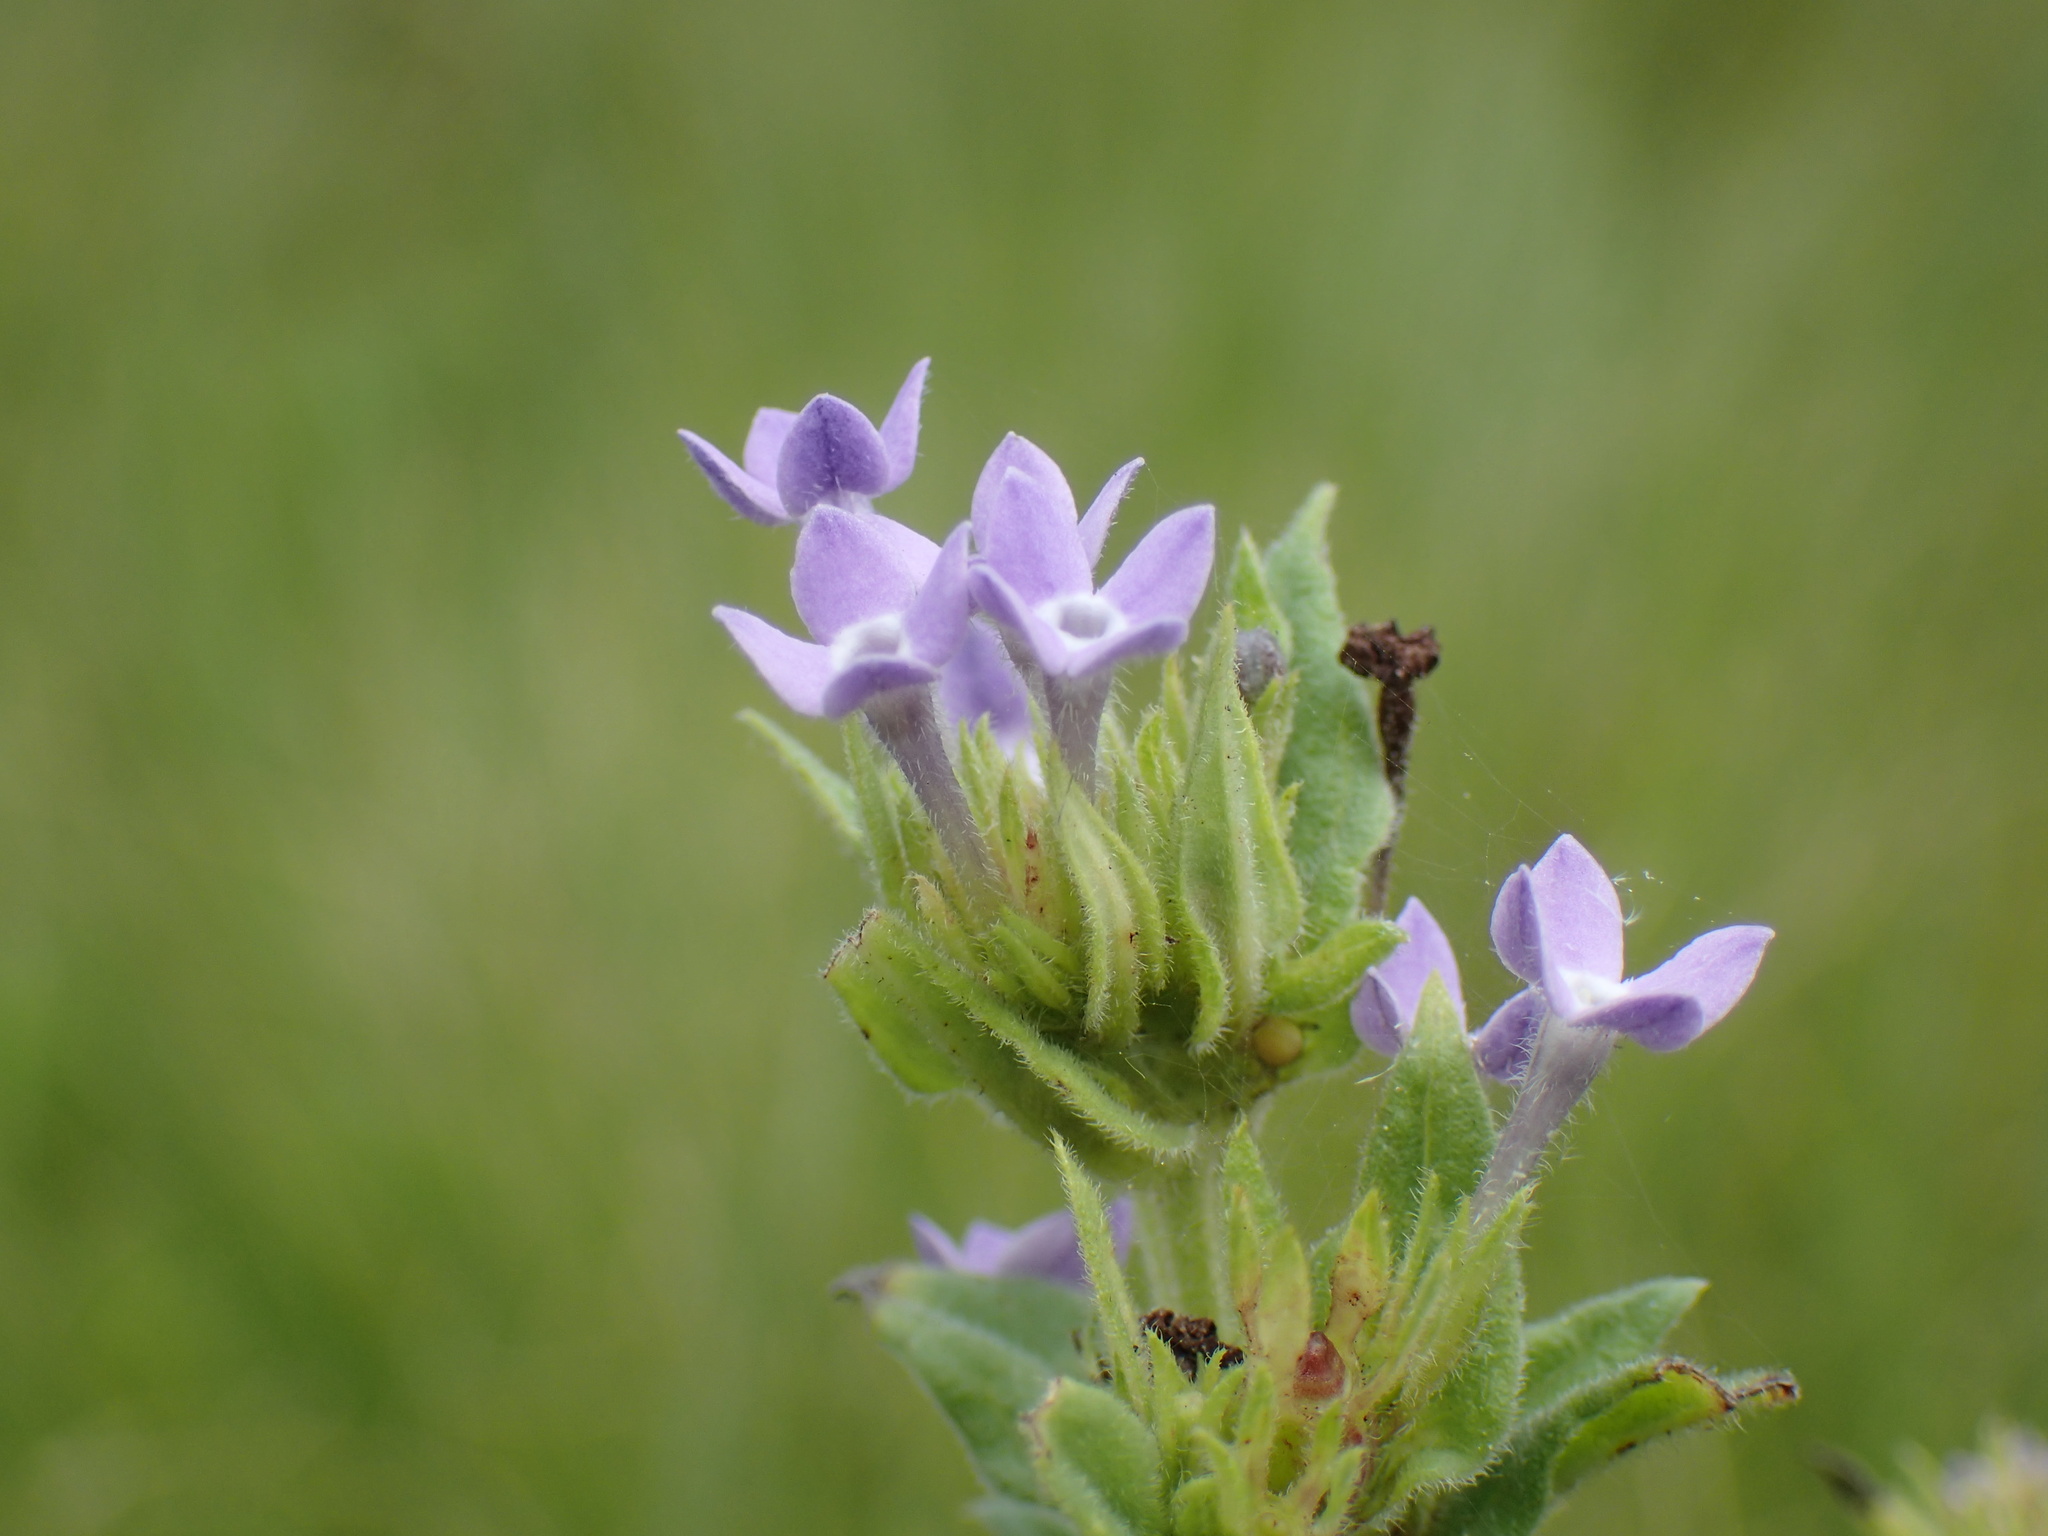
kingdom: Plantae
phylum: Tracheophyta
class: Magnoliopsida
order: Gentianales
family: Rubiaceae
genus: Conostomium
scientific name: Conostomium natalense
